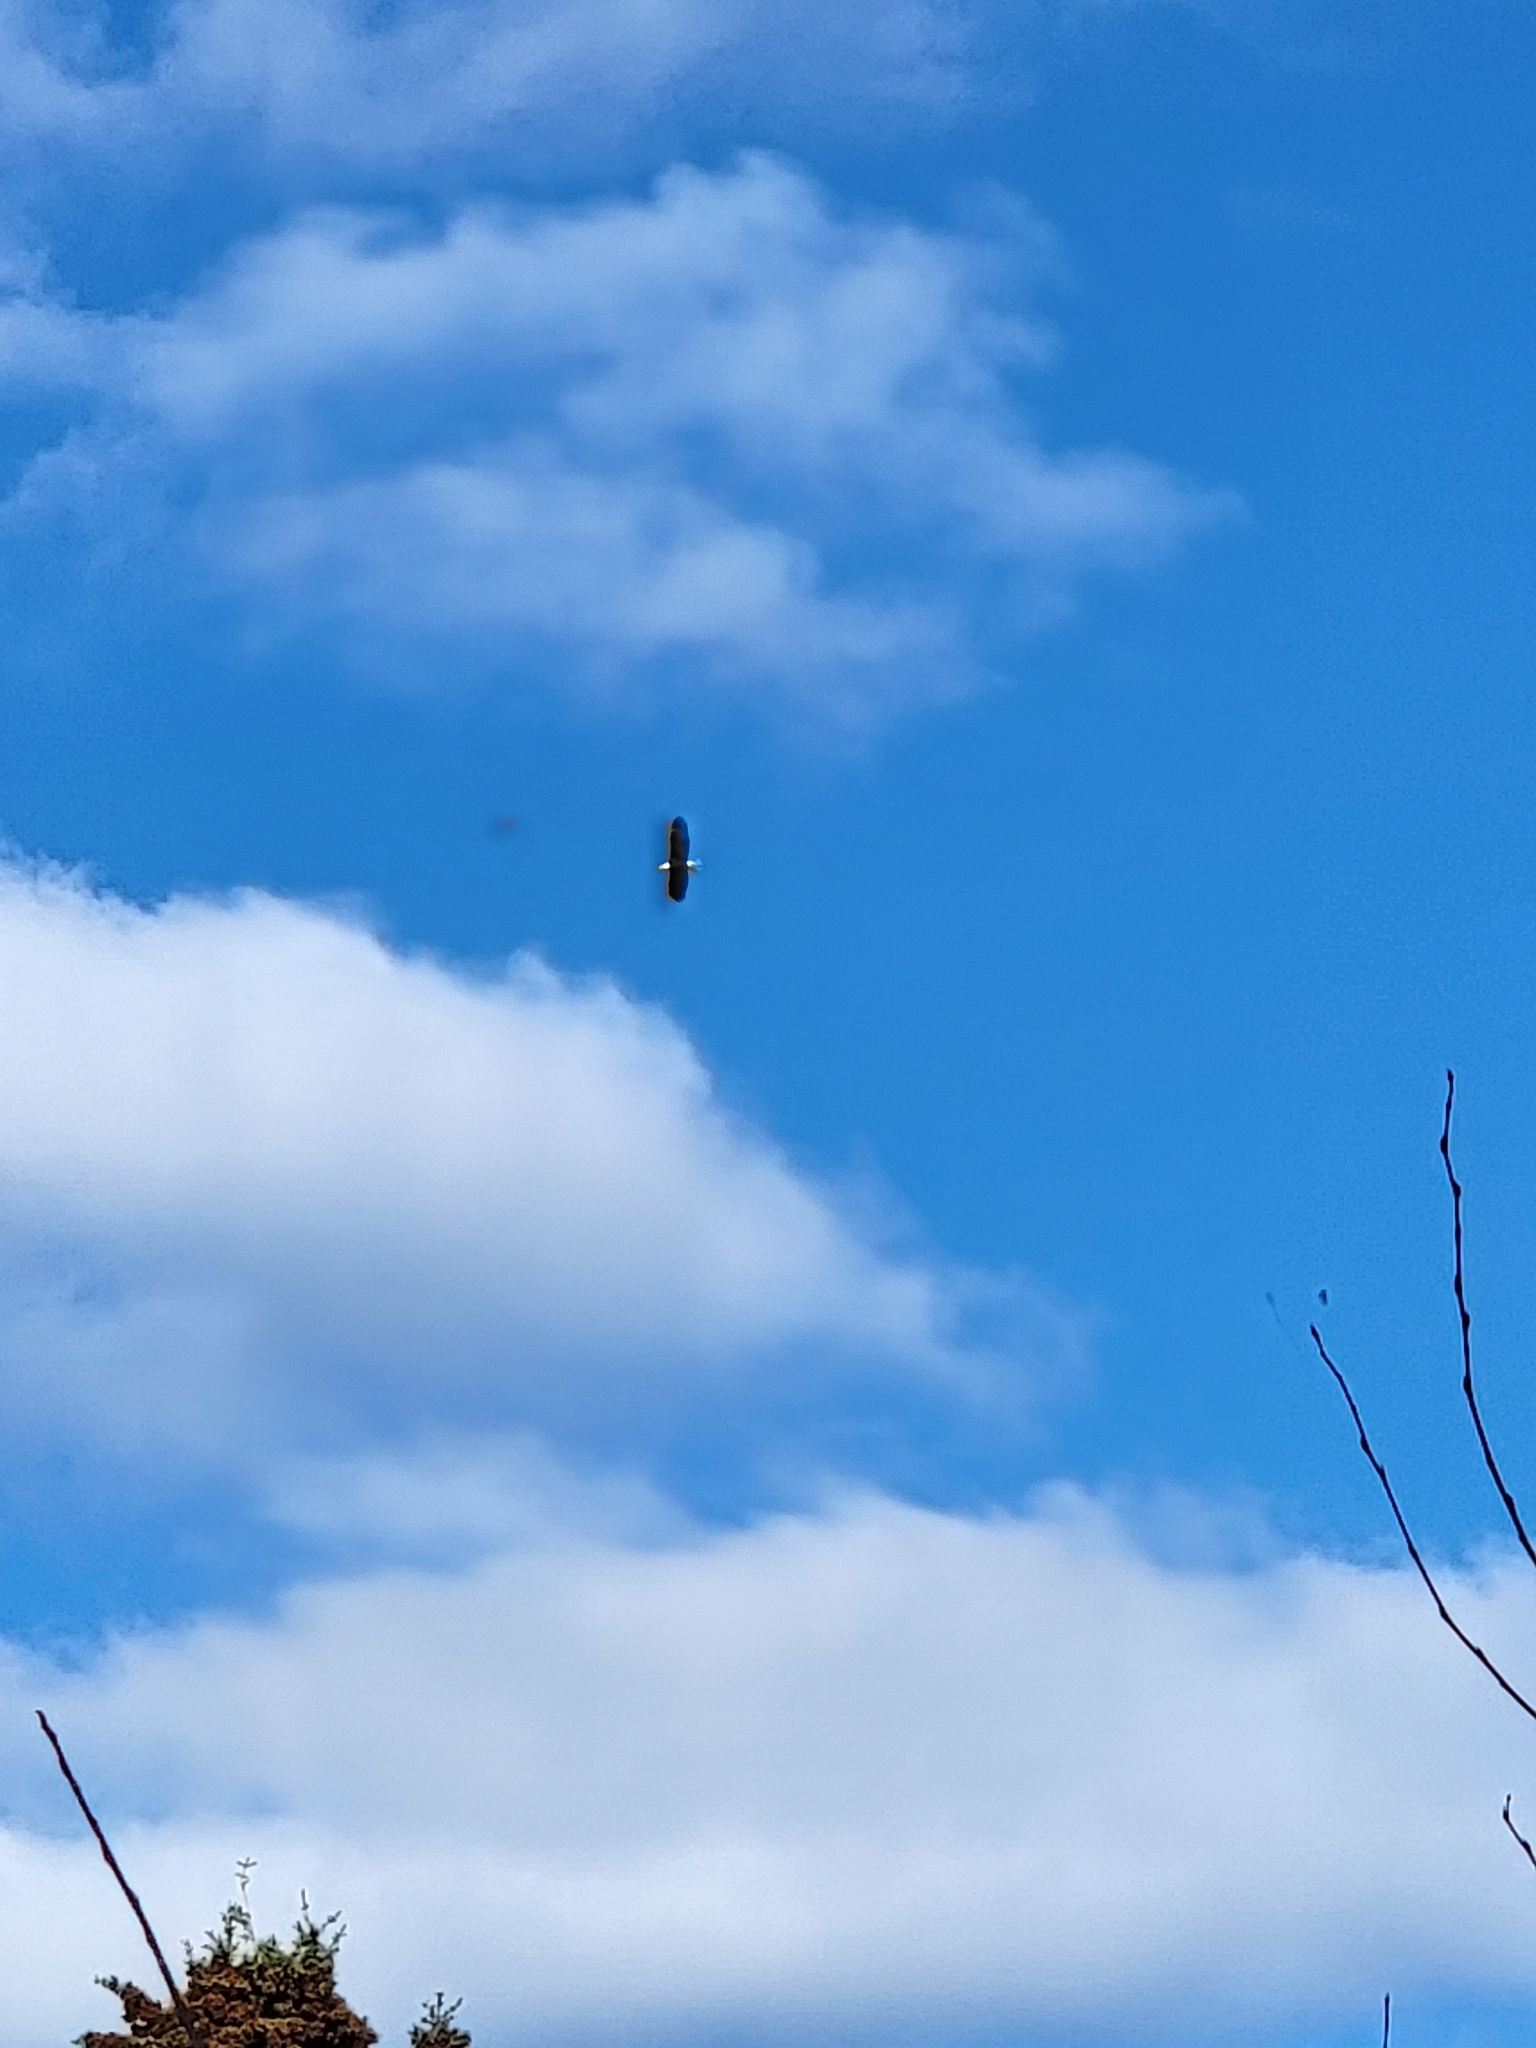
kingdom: Animalia
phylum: Chordata
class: Aves
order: Accipitriformes
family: Accipitridae
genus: Haliaeetus
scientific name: Haliaeetus leucocephalus
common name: Bald eagle
